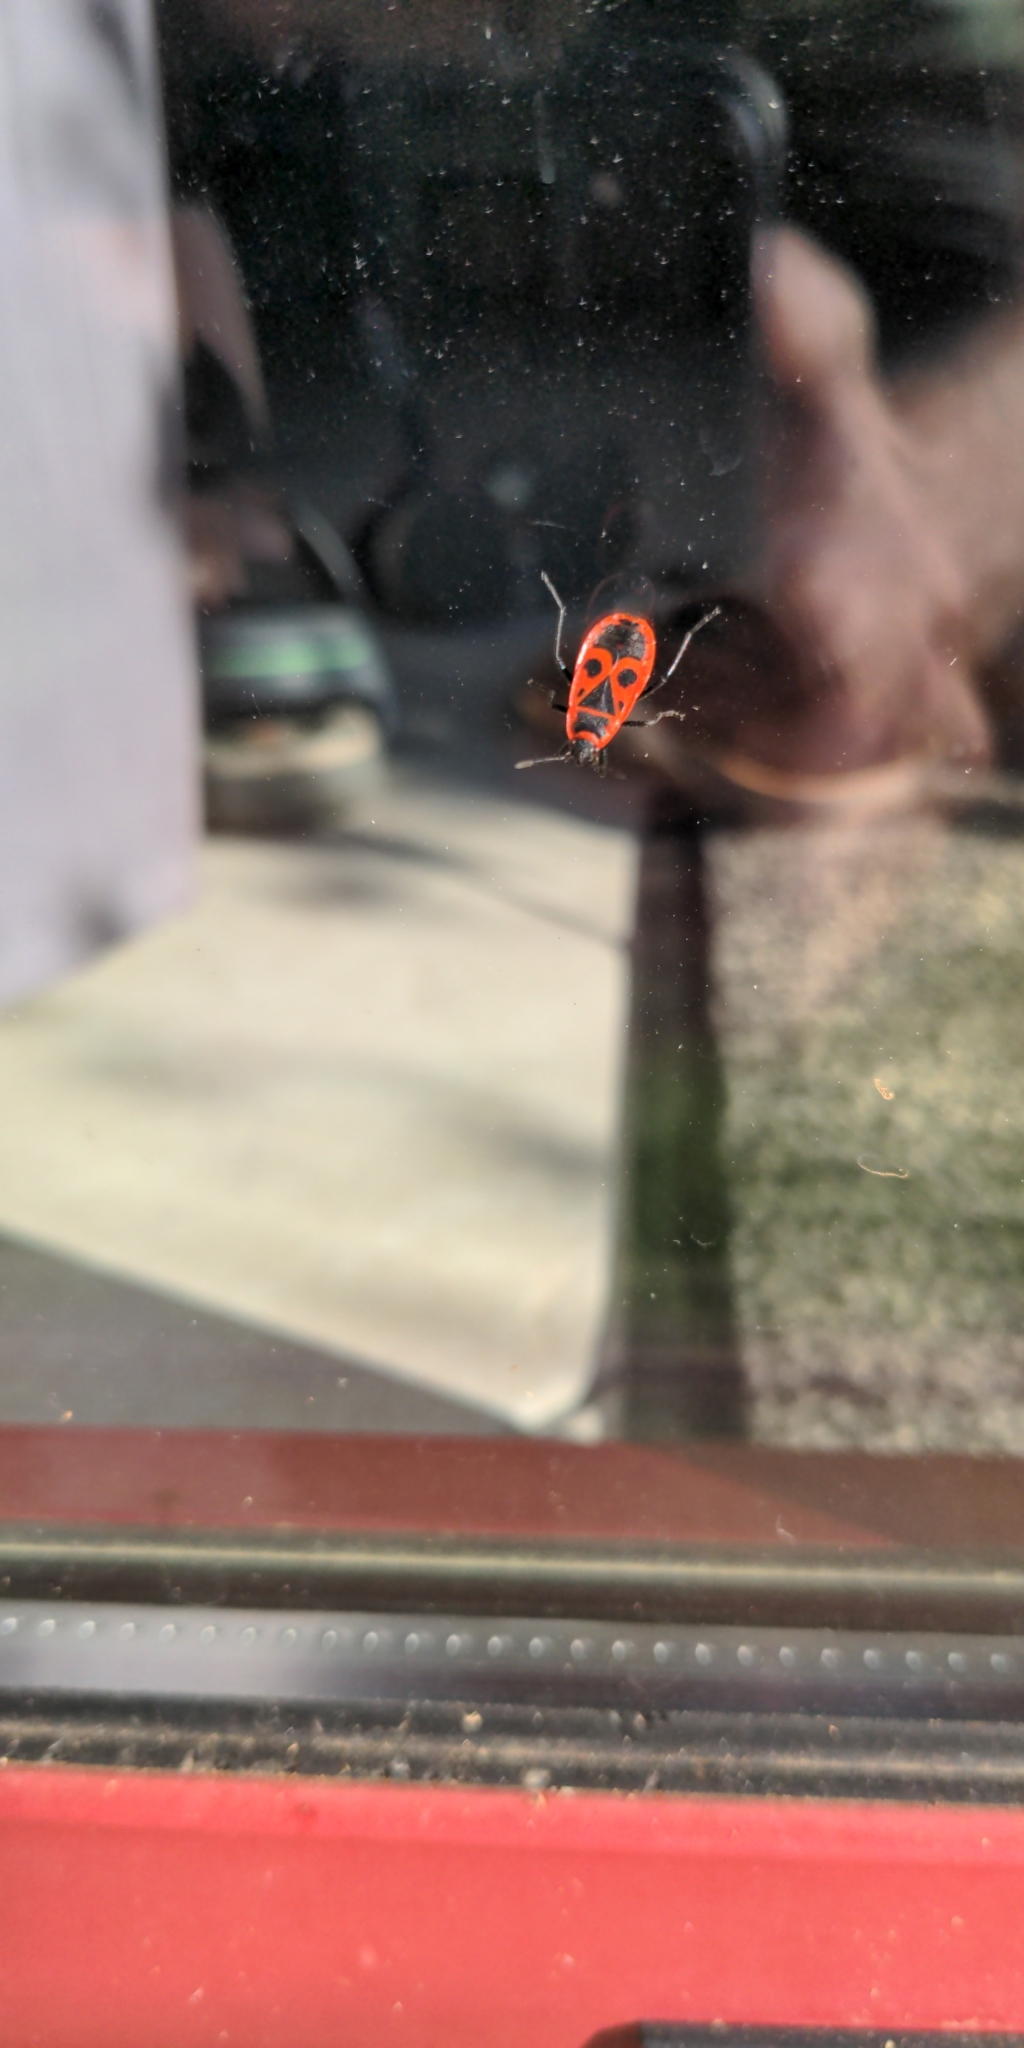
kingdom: Animalia
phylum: Arthropoda
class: Insecta
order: Hemiptera
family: Pyrrhocoridae
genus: Pyrrhocoris
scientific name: Pyrrhocoris apterus
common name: Firebug
